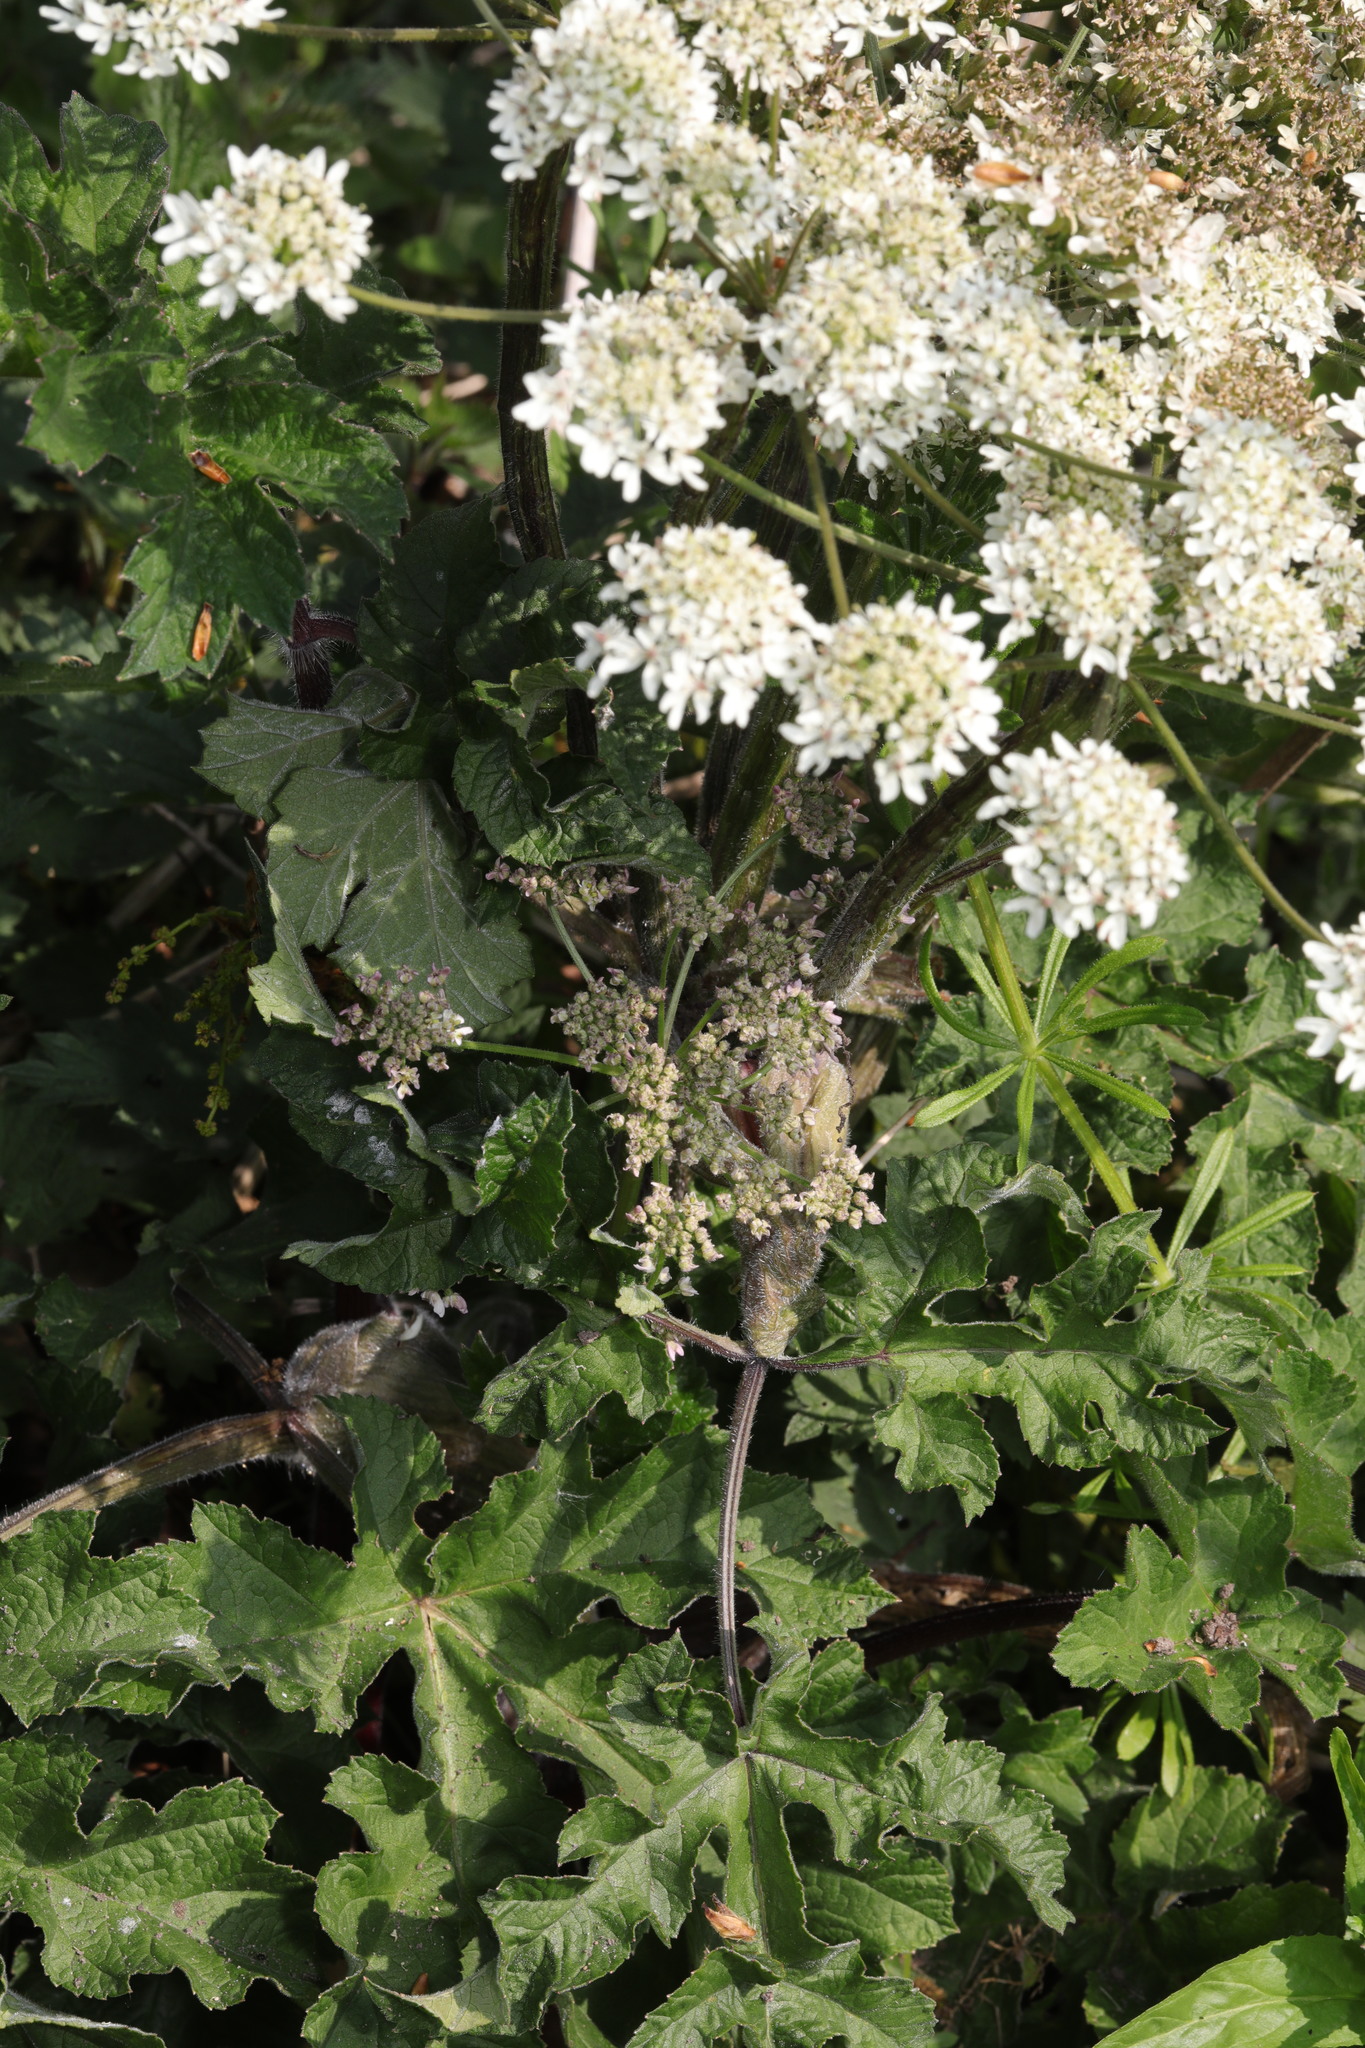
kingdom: Plantae
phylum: Tracheophyta
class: Magnoliopsida
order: Apiales
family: Apiaceae
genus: Heracleum
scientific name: Heracleum sphondylium
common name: Hogweed
